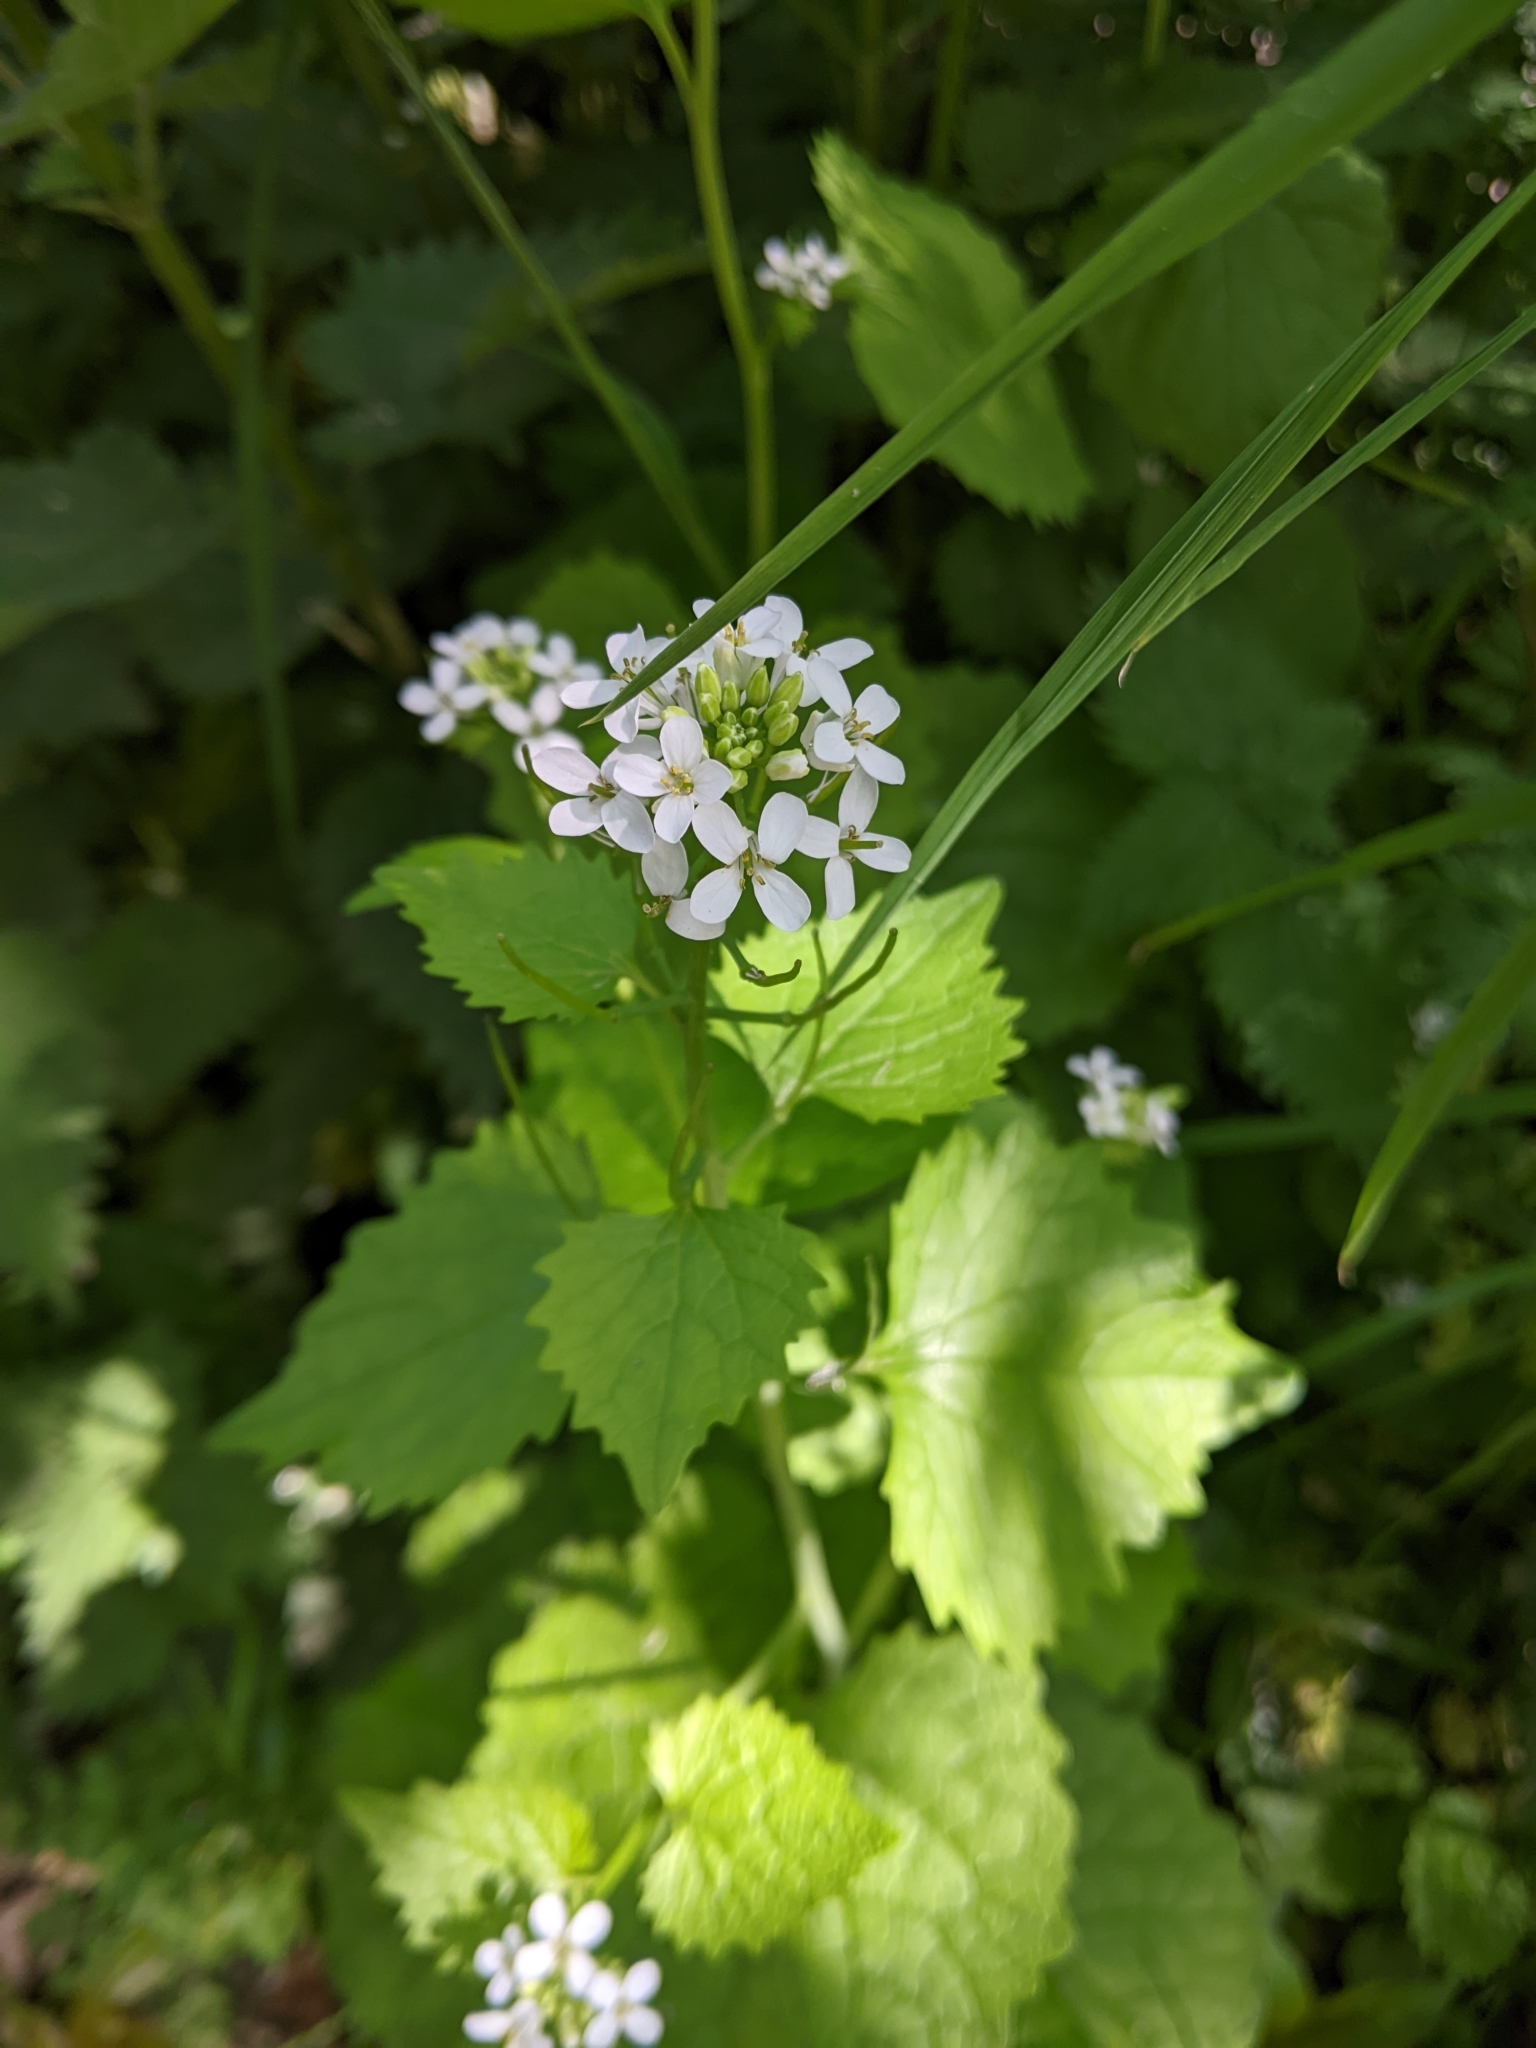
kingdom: Plantae
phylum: Tracheophyta
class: Magnoliopsida
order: Brassicales
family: Brassicaceae
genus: Alliaria
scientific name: Alliaria petiolata
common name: Garlic mustard
